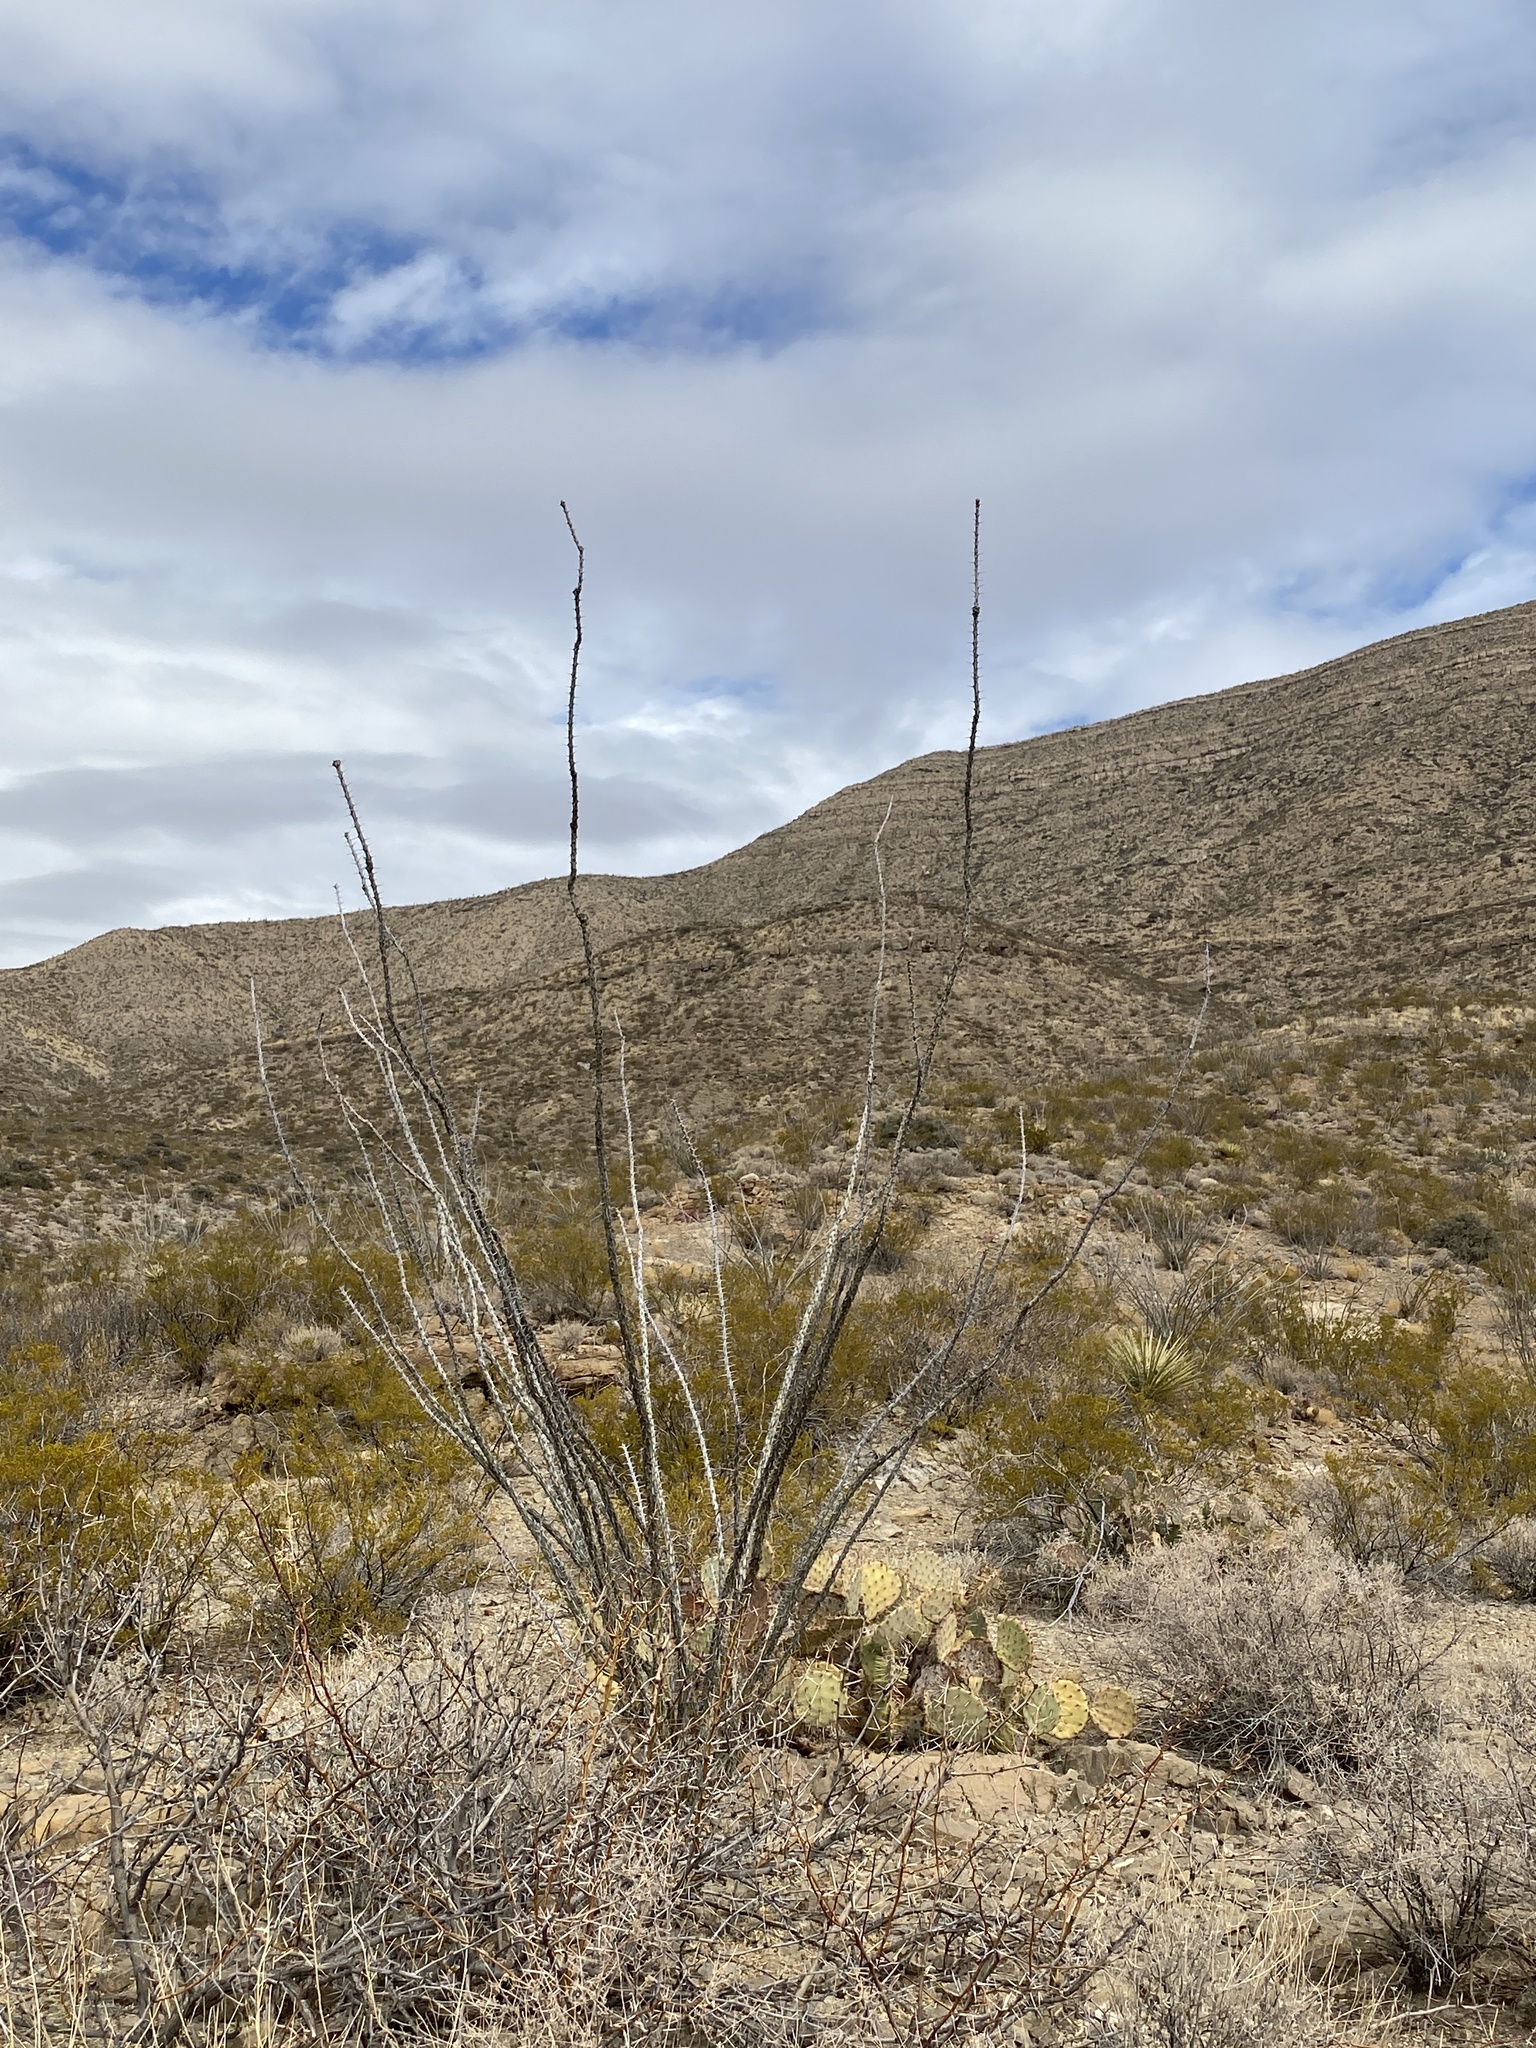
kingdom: Plantae
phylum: Tracheophyta
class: Magnoliopsida
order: Ericales
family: Fouquieriaceae
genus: Fouquieria
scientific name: Fouquieria splendens
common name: Vine-cactus
